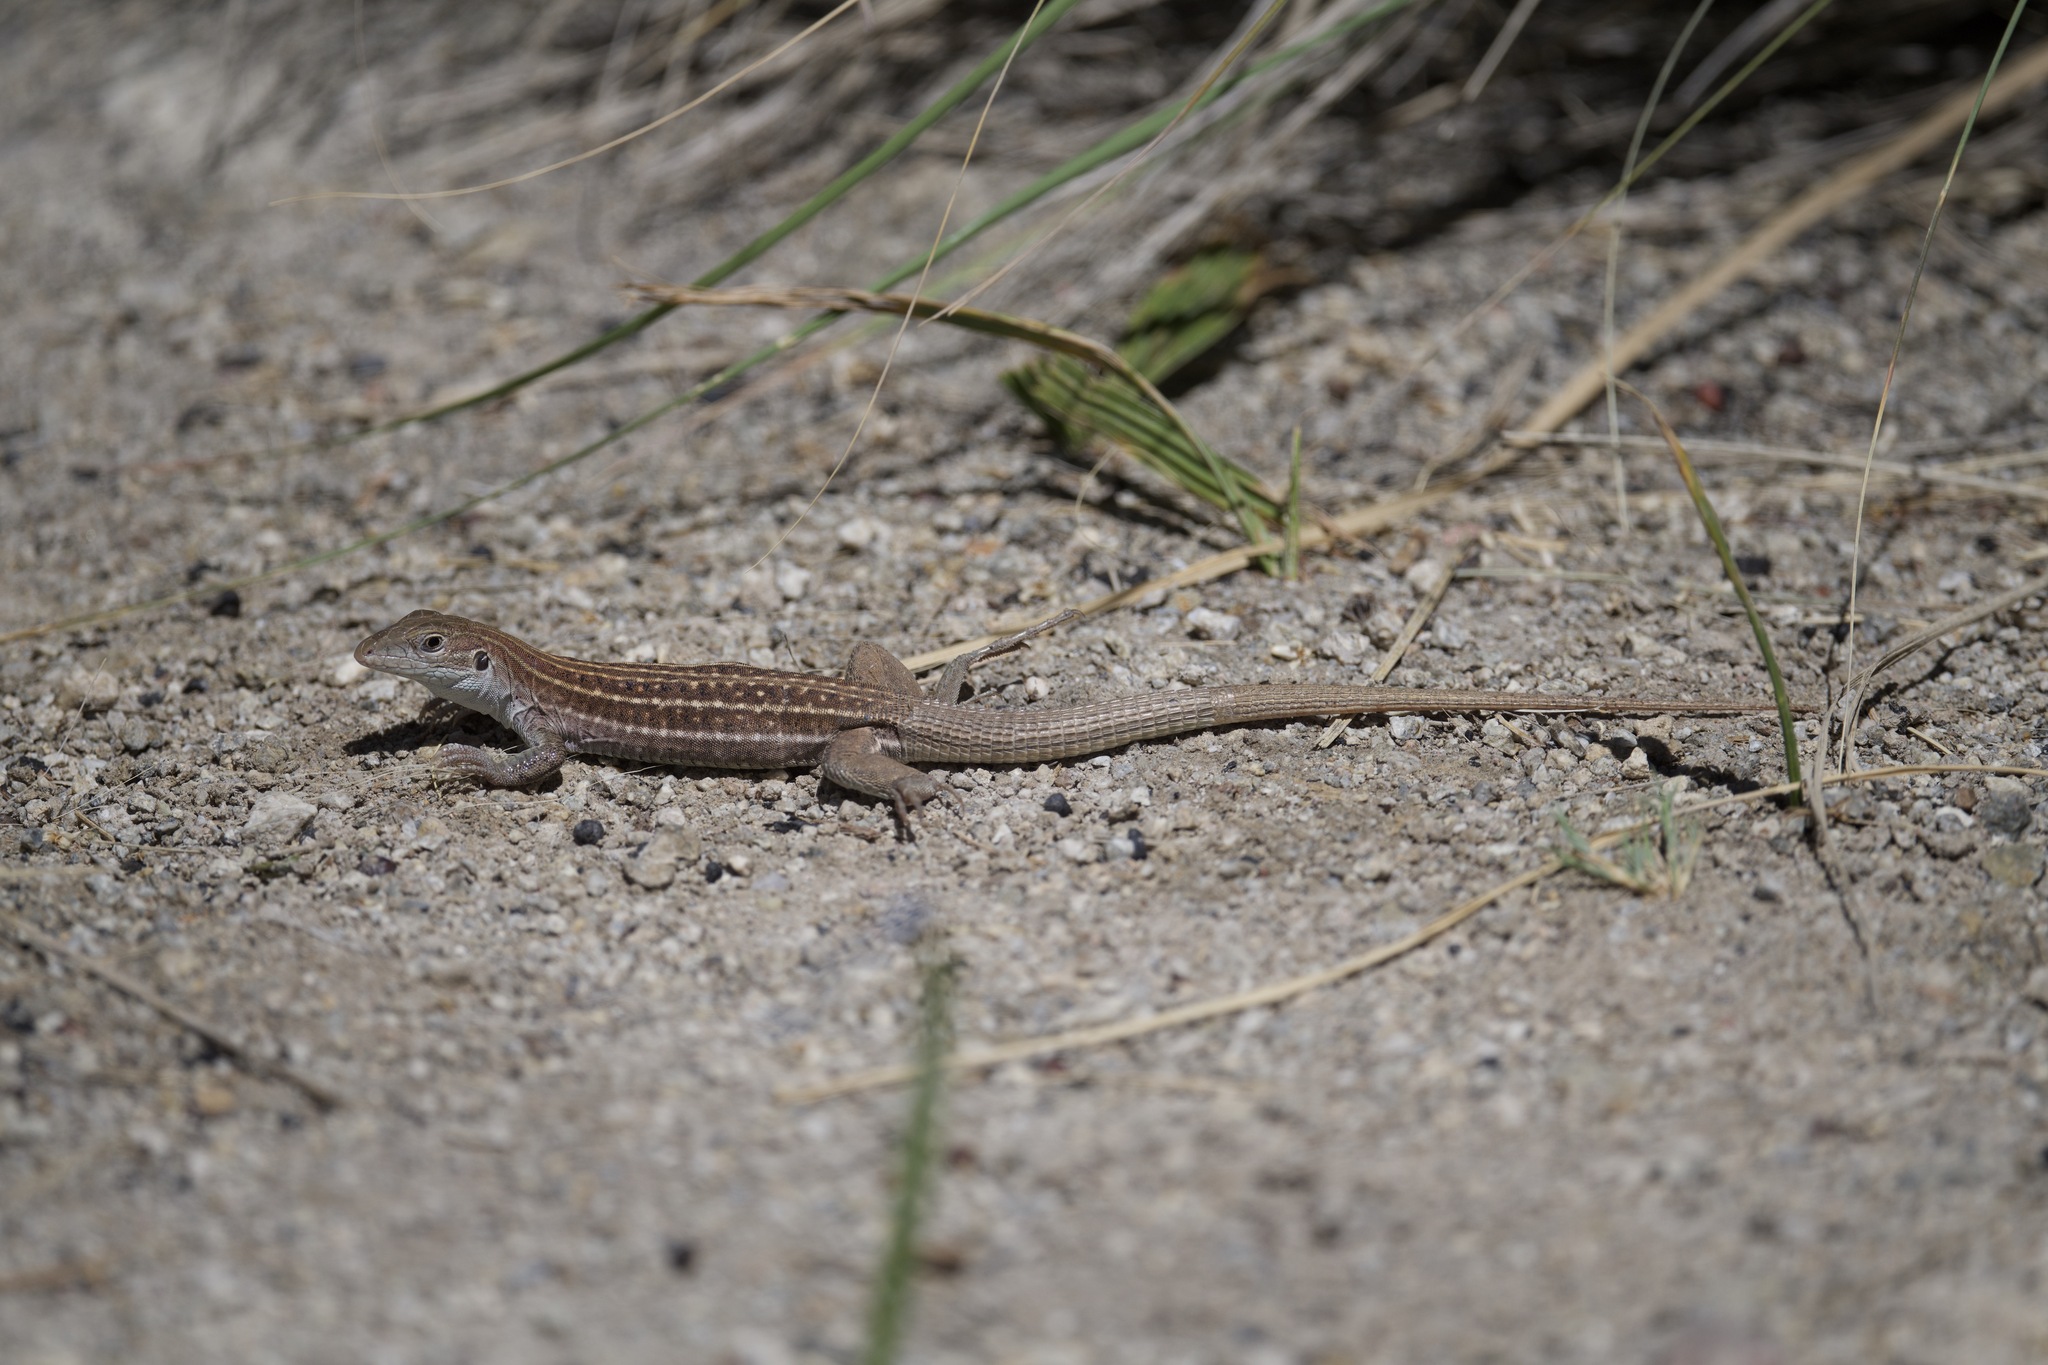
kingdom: Animalia
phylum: Chordata
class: Squamata
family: Teiidae
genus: Aspidoscelis
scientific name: Aspidoscelis sonorae
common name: Sonoran spotted whiptail
